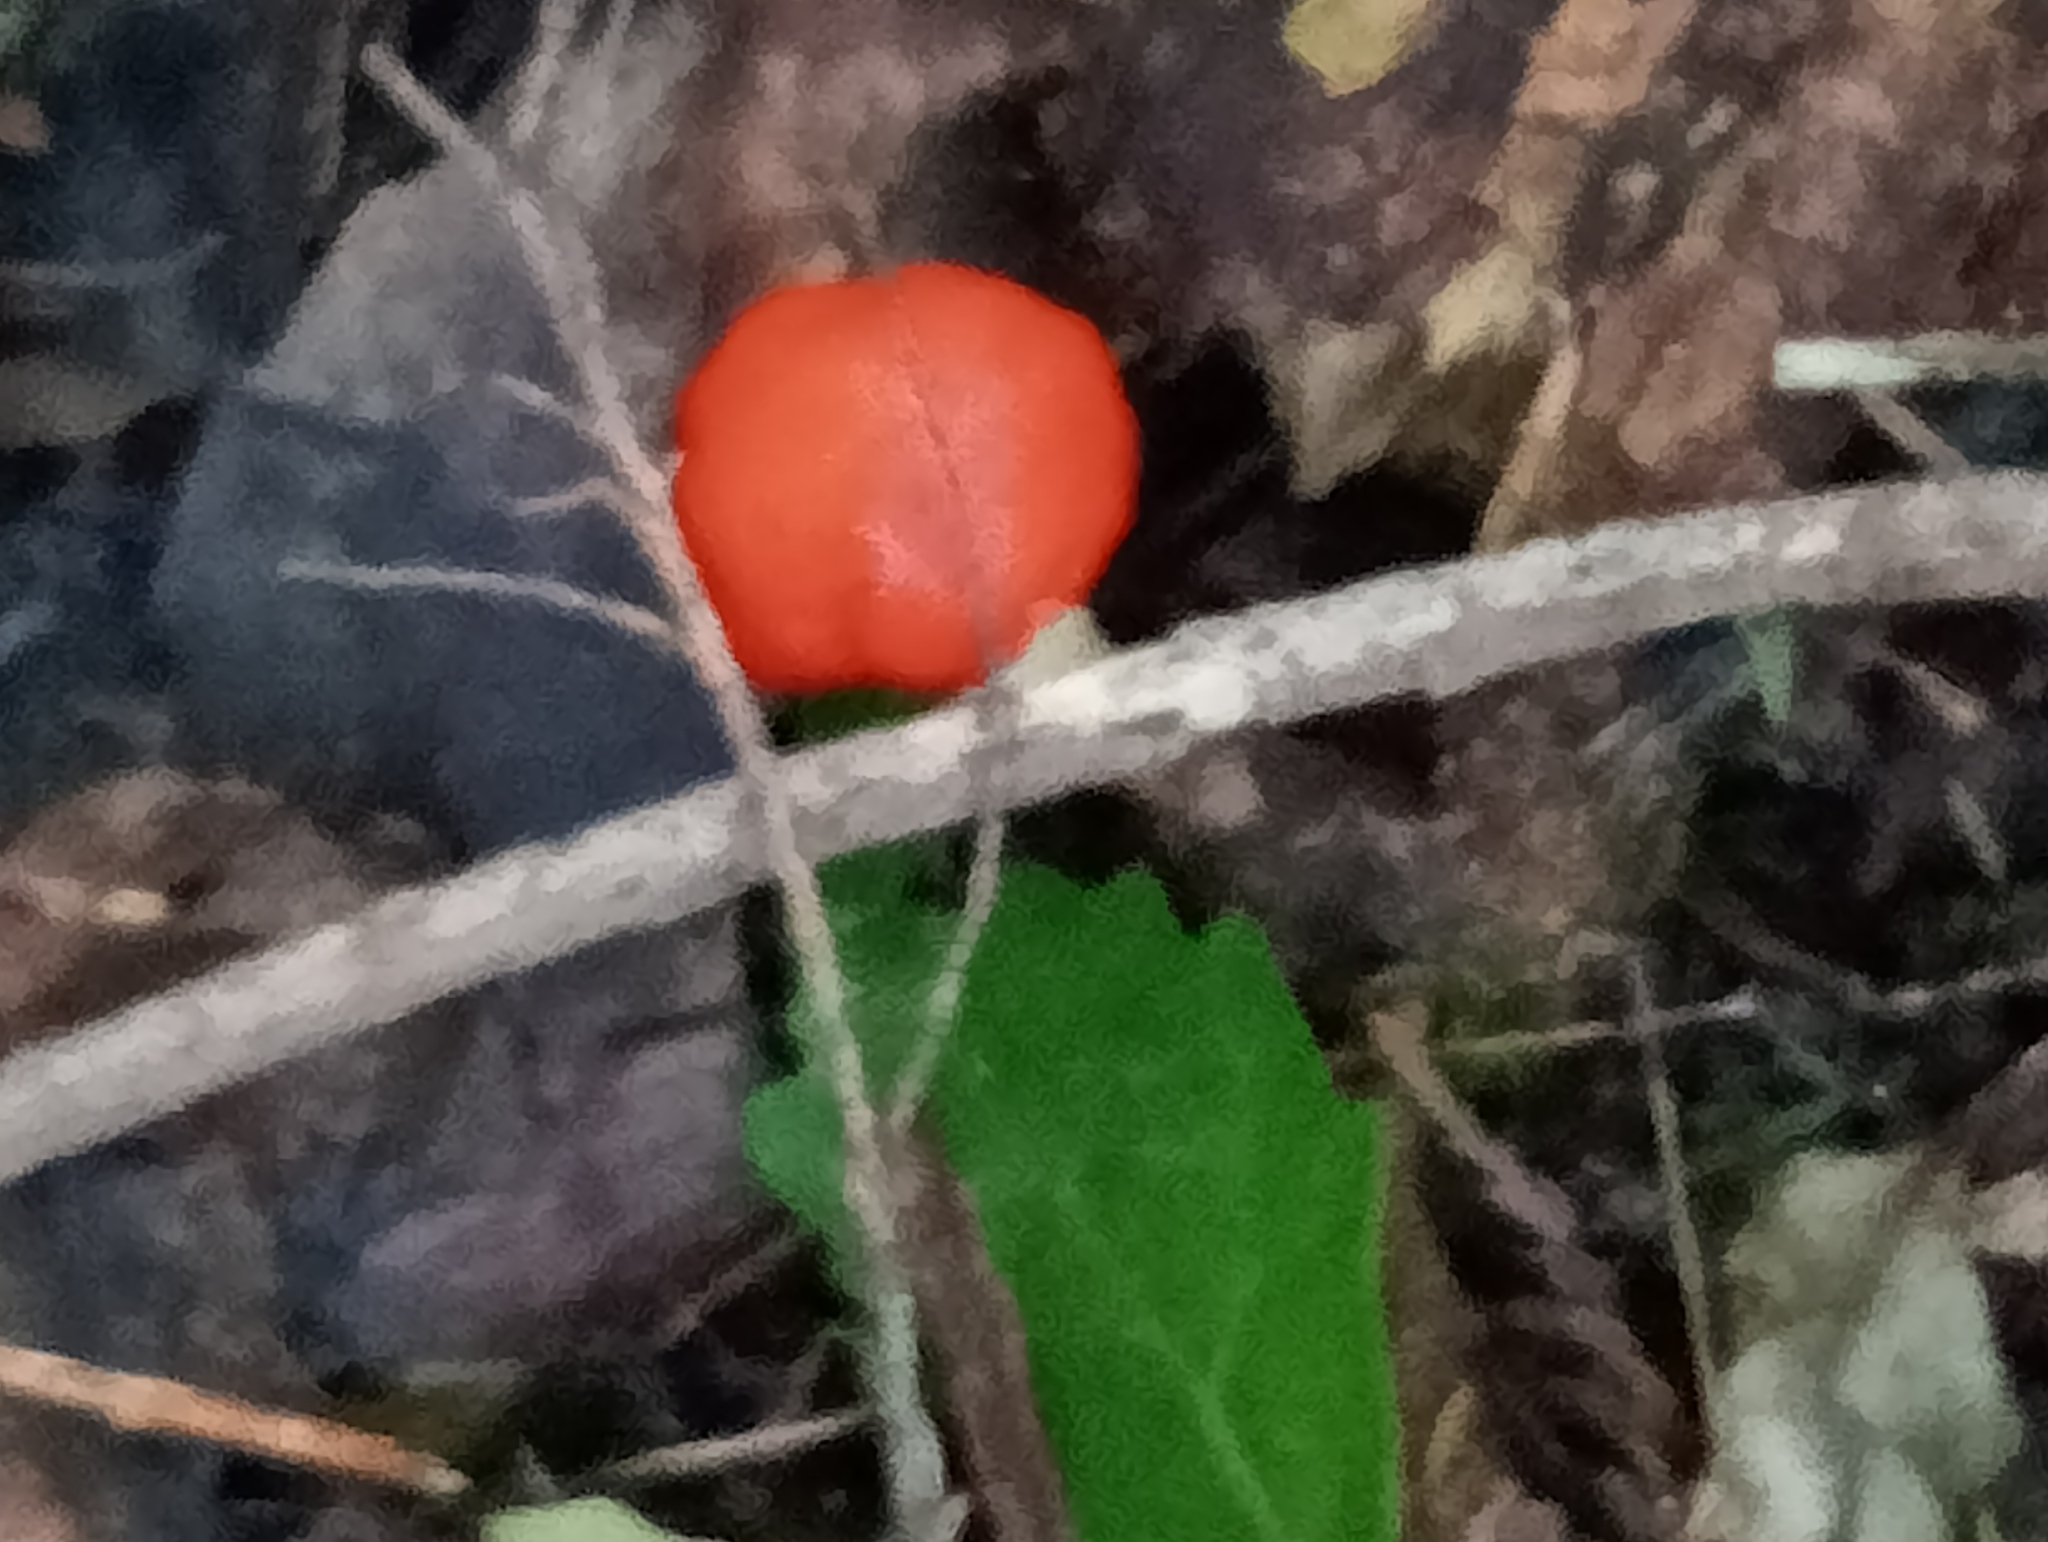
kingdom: Fungi
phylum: Basidiomycota
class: Agaricomycetes
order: Agaricales
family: Strophariaceae
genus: Leratiomyces
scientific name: Leratiomyces erythrocephalus
